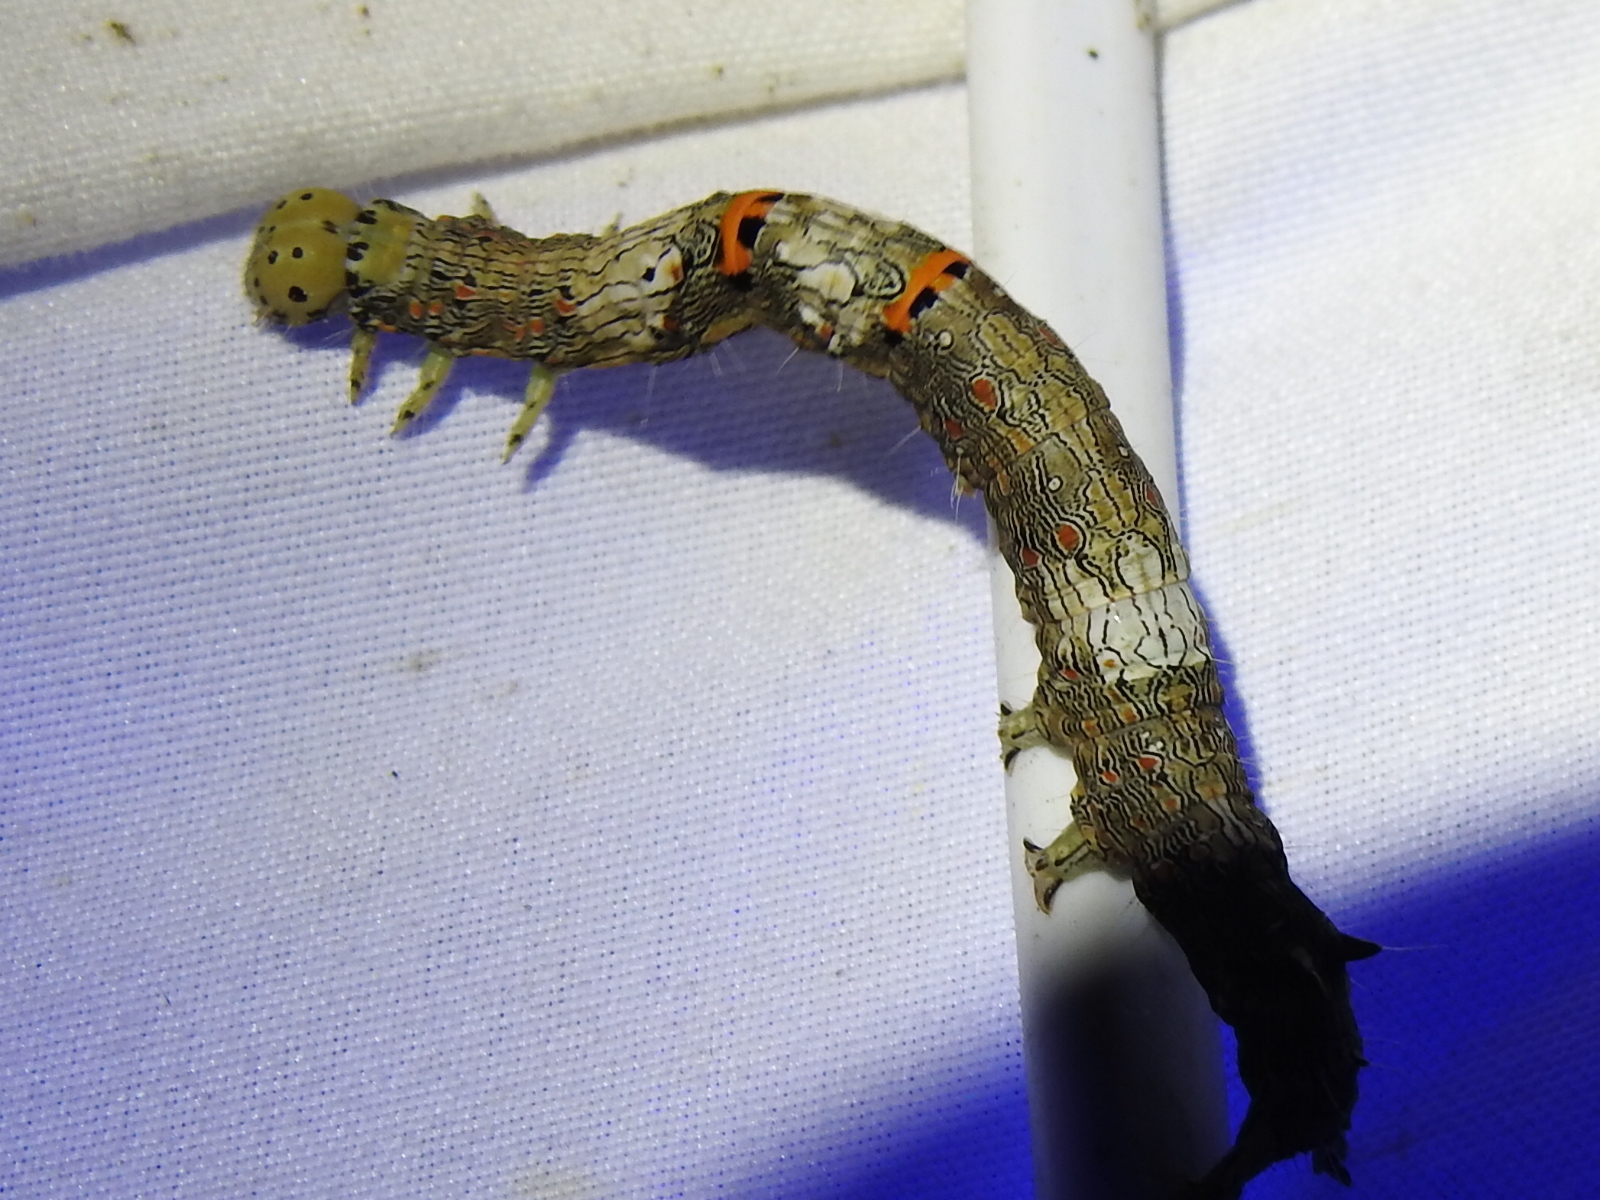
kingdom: Animalia
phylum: Arthropoda
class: Insecta
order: Lepidoptera
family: Erebidae
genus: Metria
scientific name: Metria bilineata
